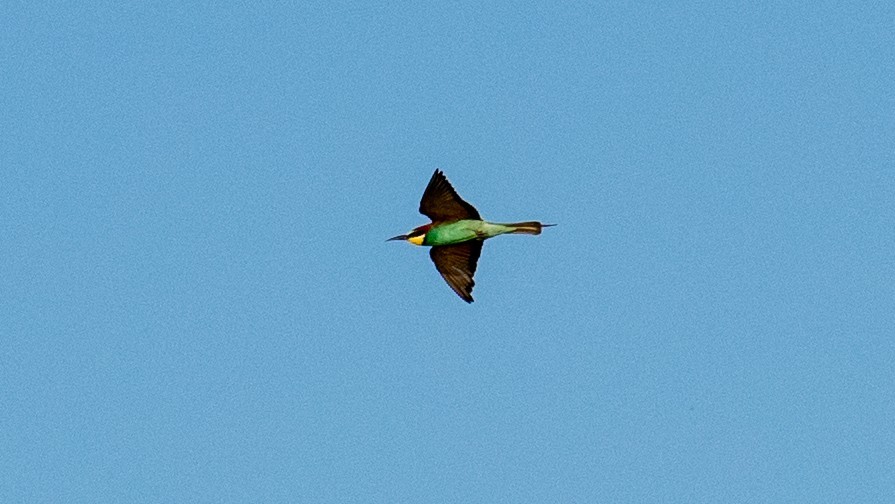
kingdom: Animalia
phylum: Chordata
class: Aves
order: Coraciiformes
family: Meropidae
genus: Merops
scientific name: Merops apiaster
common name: European bee-eater
